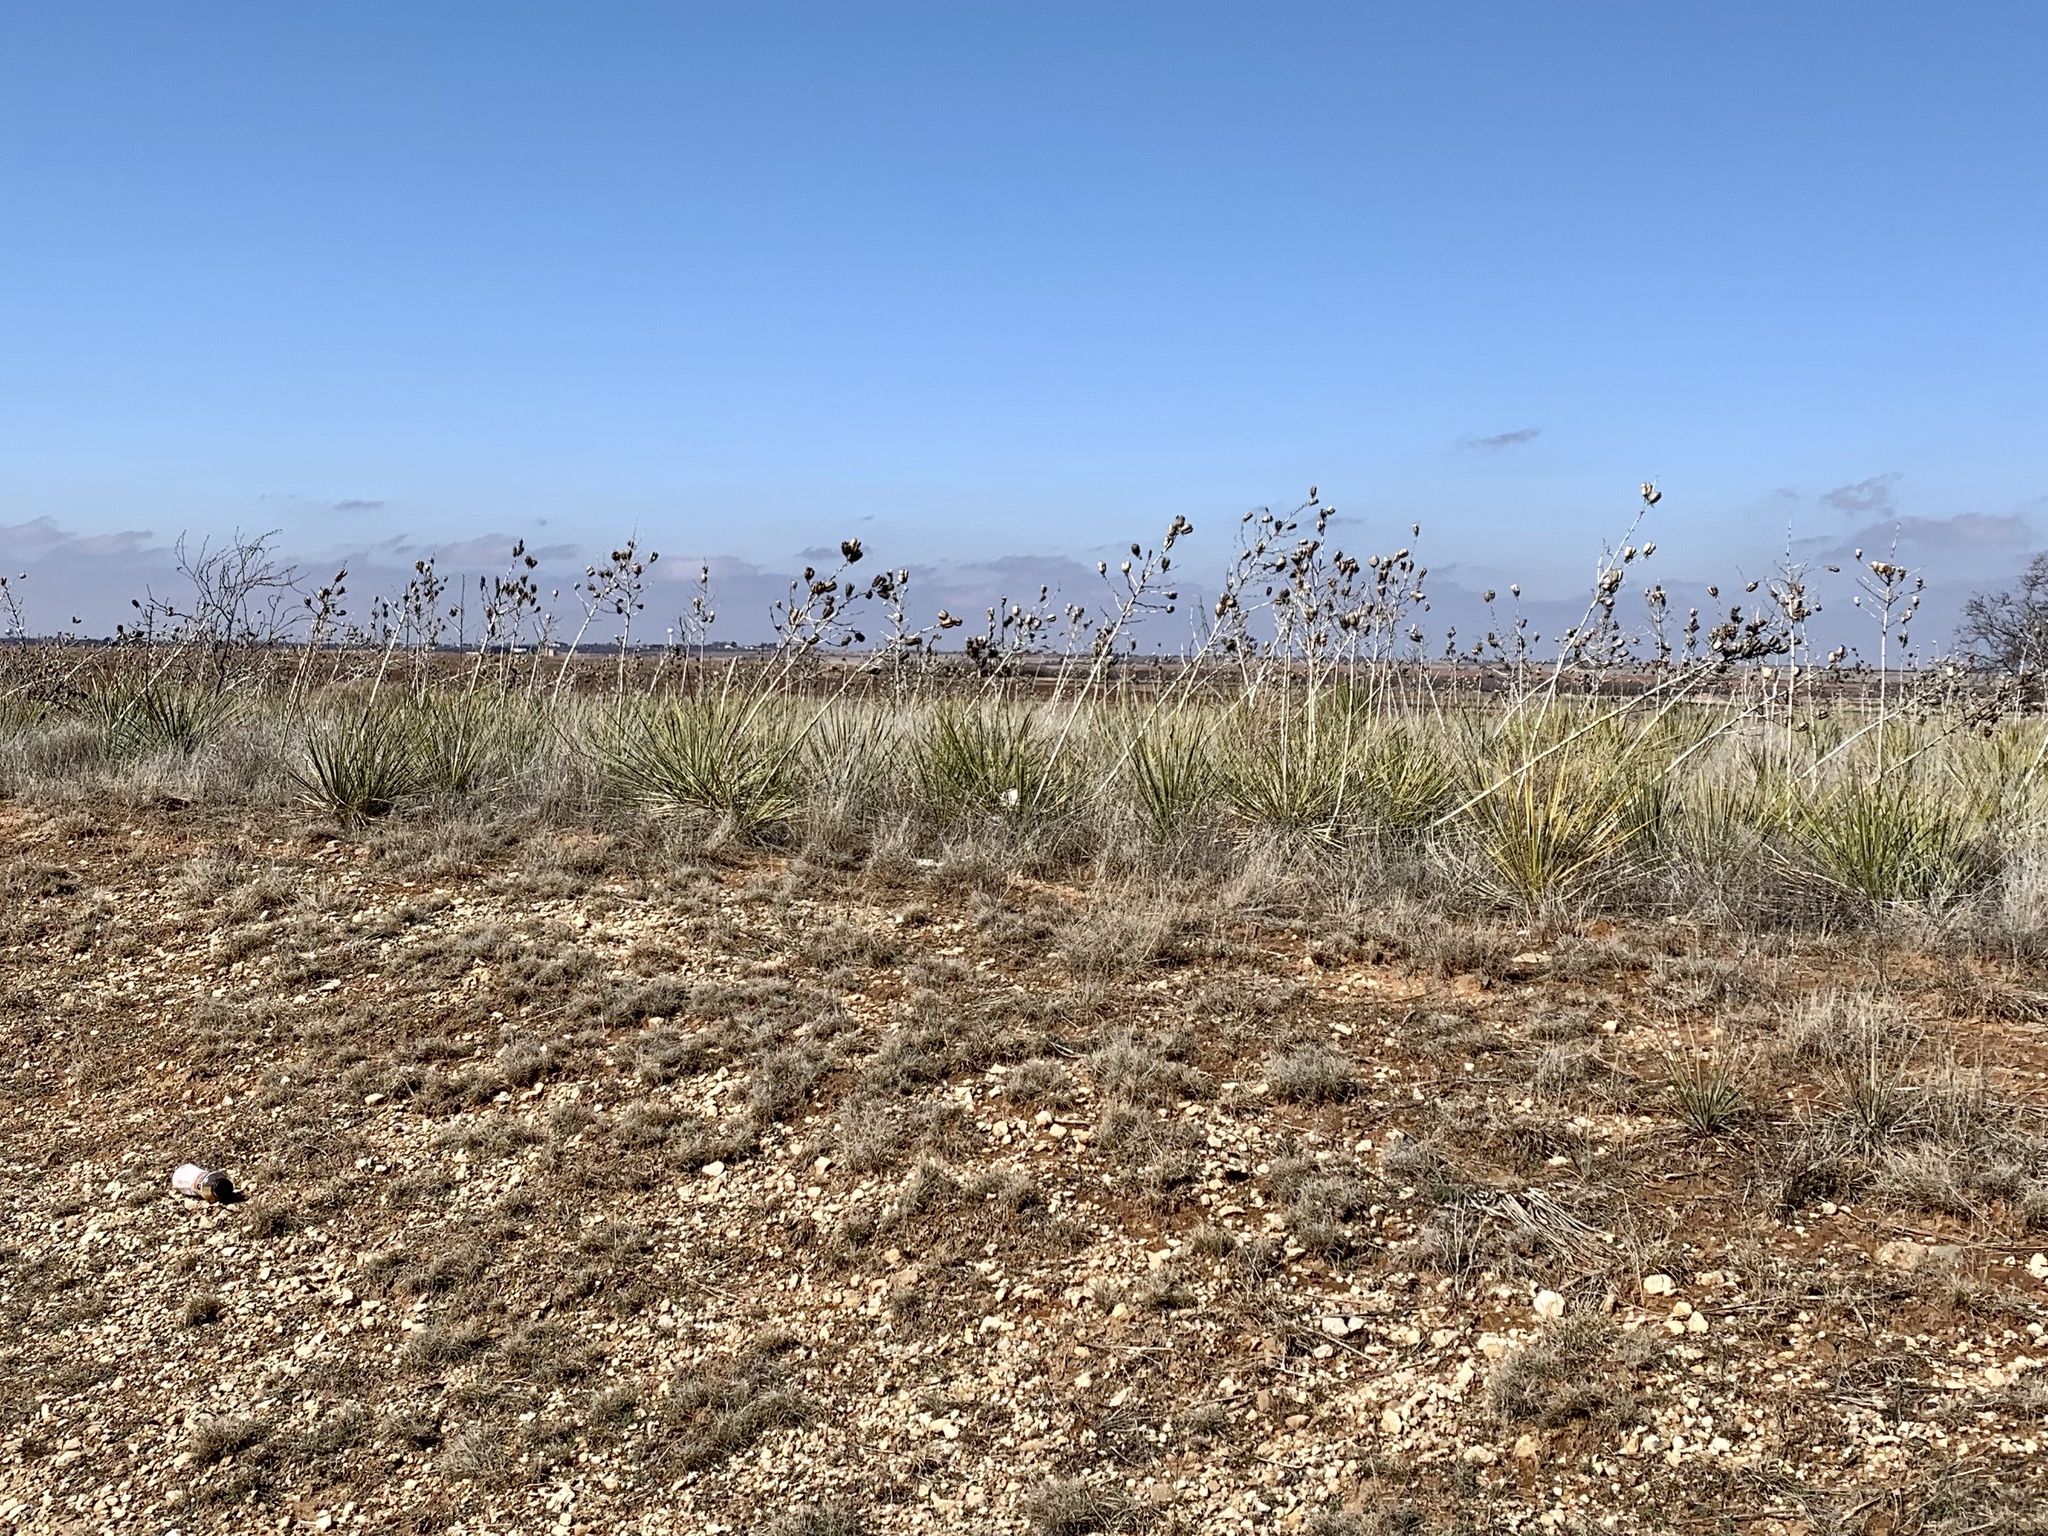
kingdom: Plantae
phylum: Tracheophyta
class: Liliopsida
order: Asparagales
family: Asparagaceae
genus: Yucca
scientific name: Yucca campestris
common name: Plains yucca
